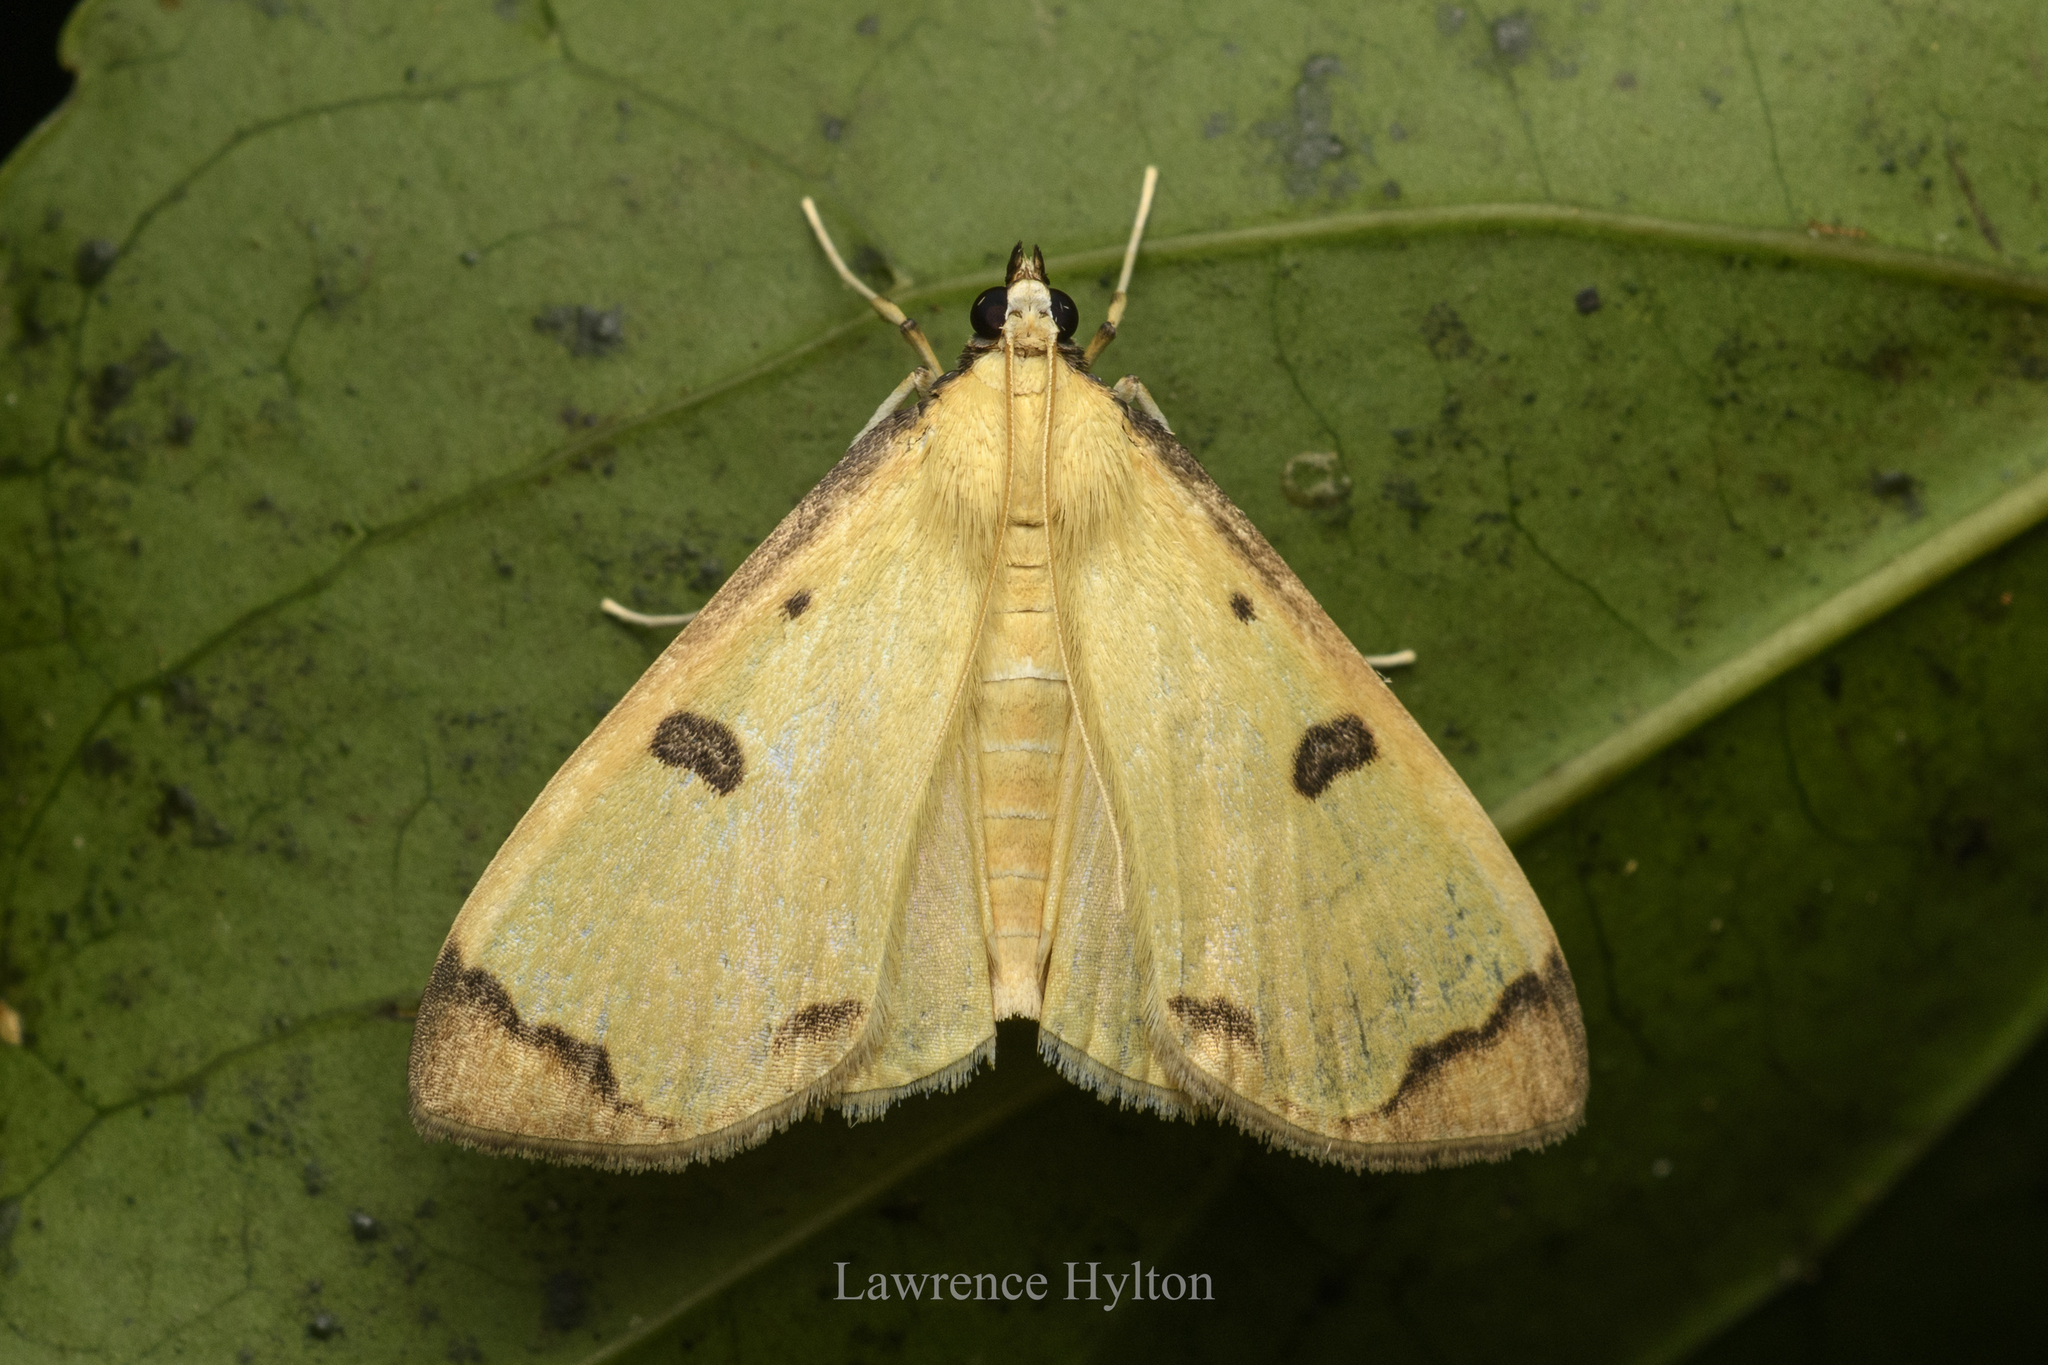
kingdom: Animalia
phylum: Arthropoda
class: Insecta
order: Lepidoptera
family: Pyralidae
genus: Uncobotyodes
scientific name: Uncobotyodes
